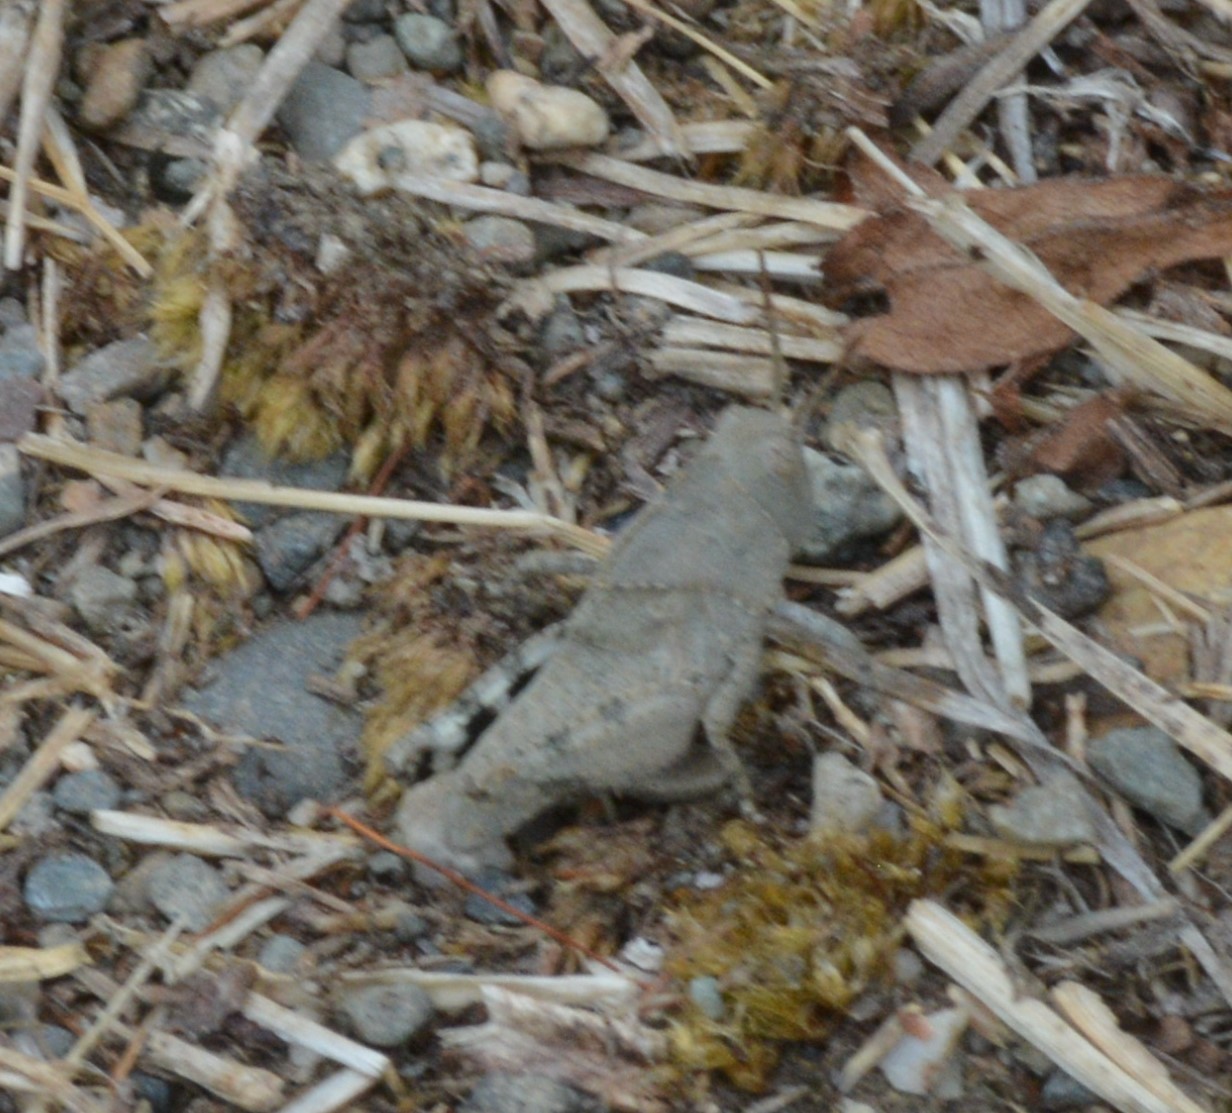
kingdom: Animalia
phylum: Arthropoda
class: Insecta
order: Orthoptera
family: Acrididae
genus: Dissosteira
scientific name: Dissosteira carolina
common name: Carolina grasshopper
